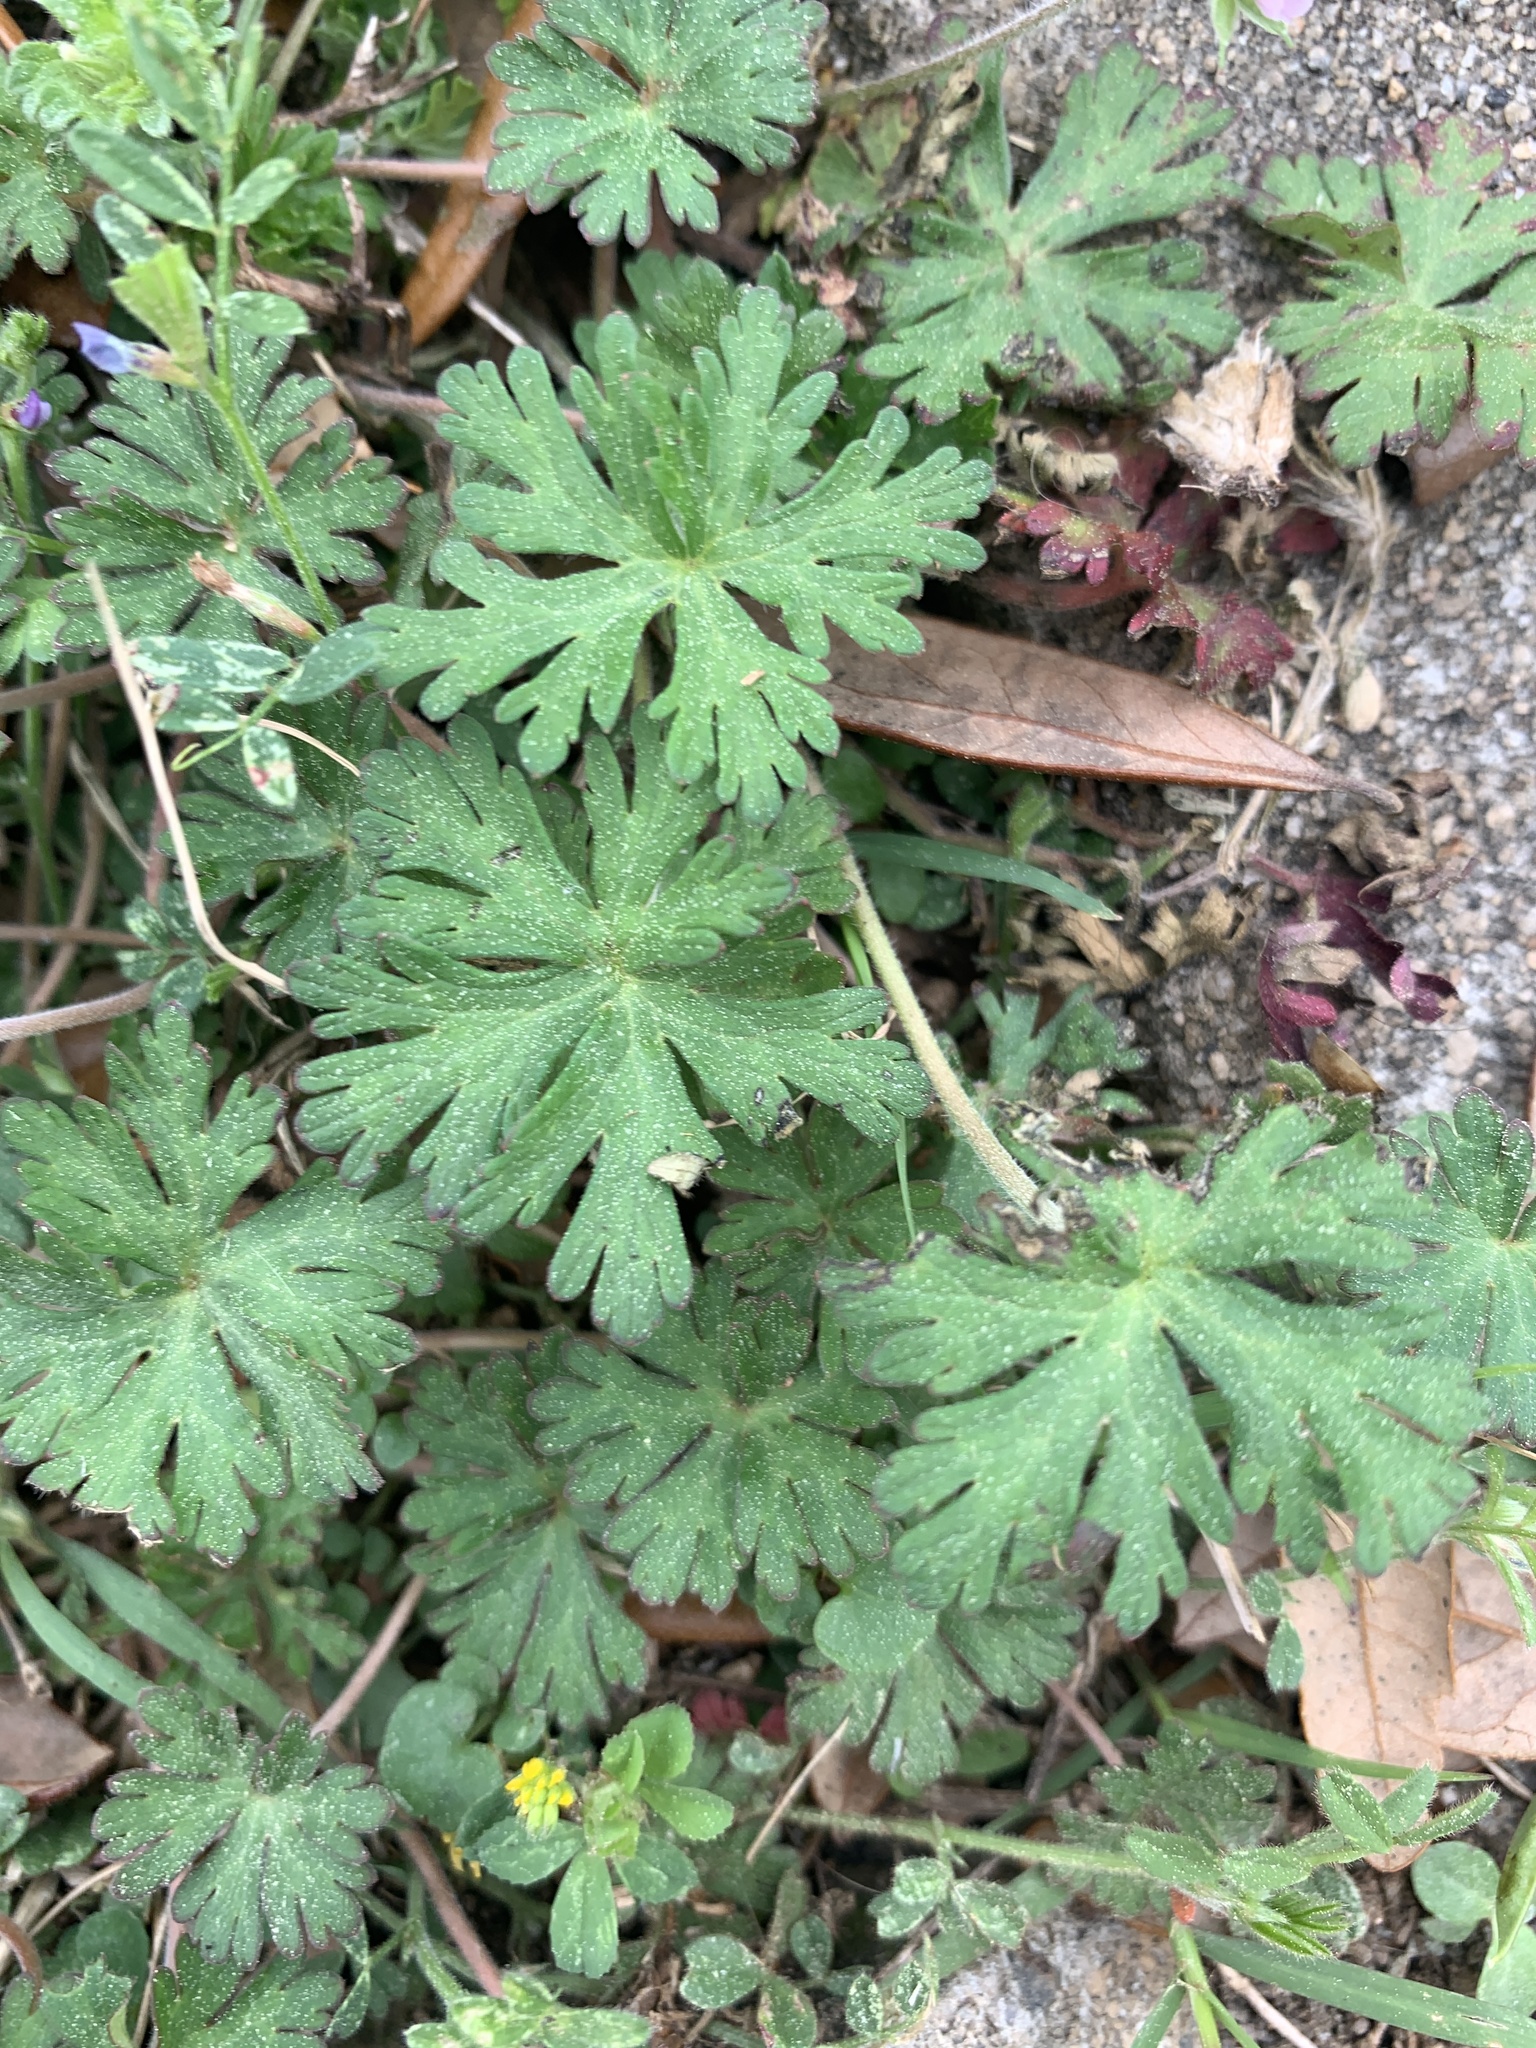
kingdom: Plantae
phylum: Tracheophyta
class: Magnoliopsida
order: Geraniales
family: Geraniaceae
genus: Geranium
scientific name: Geranium carolinianum
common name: Carolina crane's-bill
